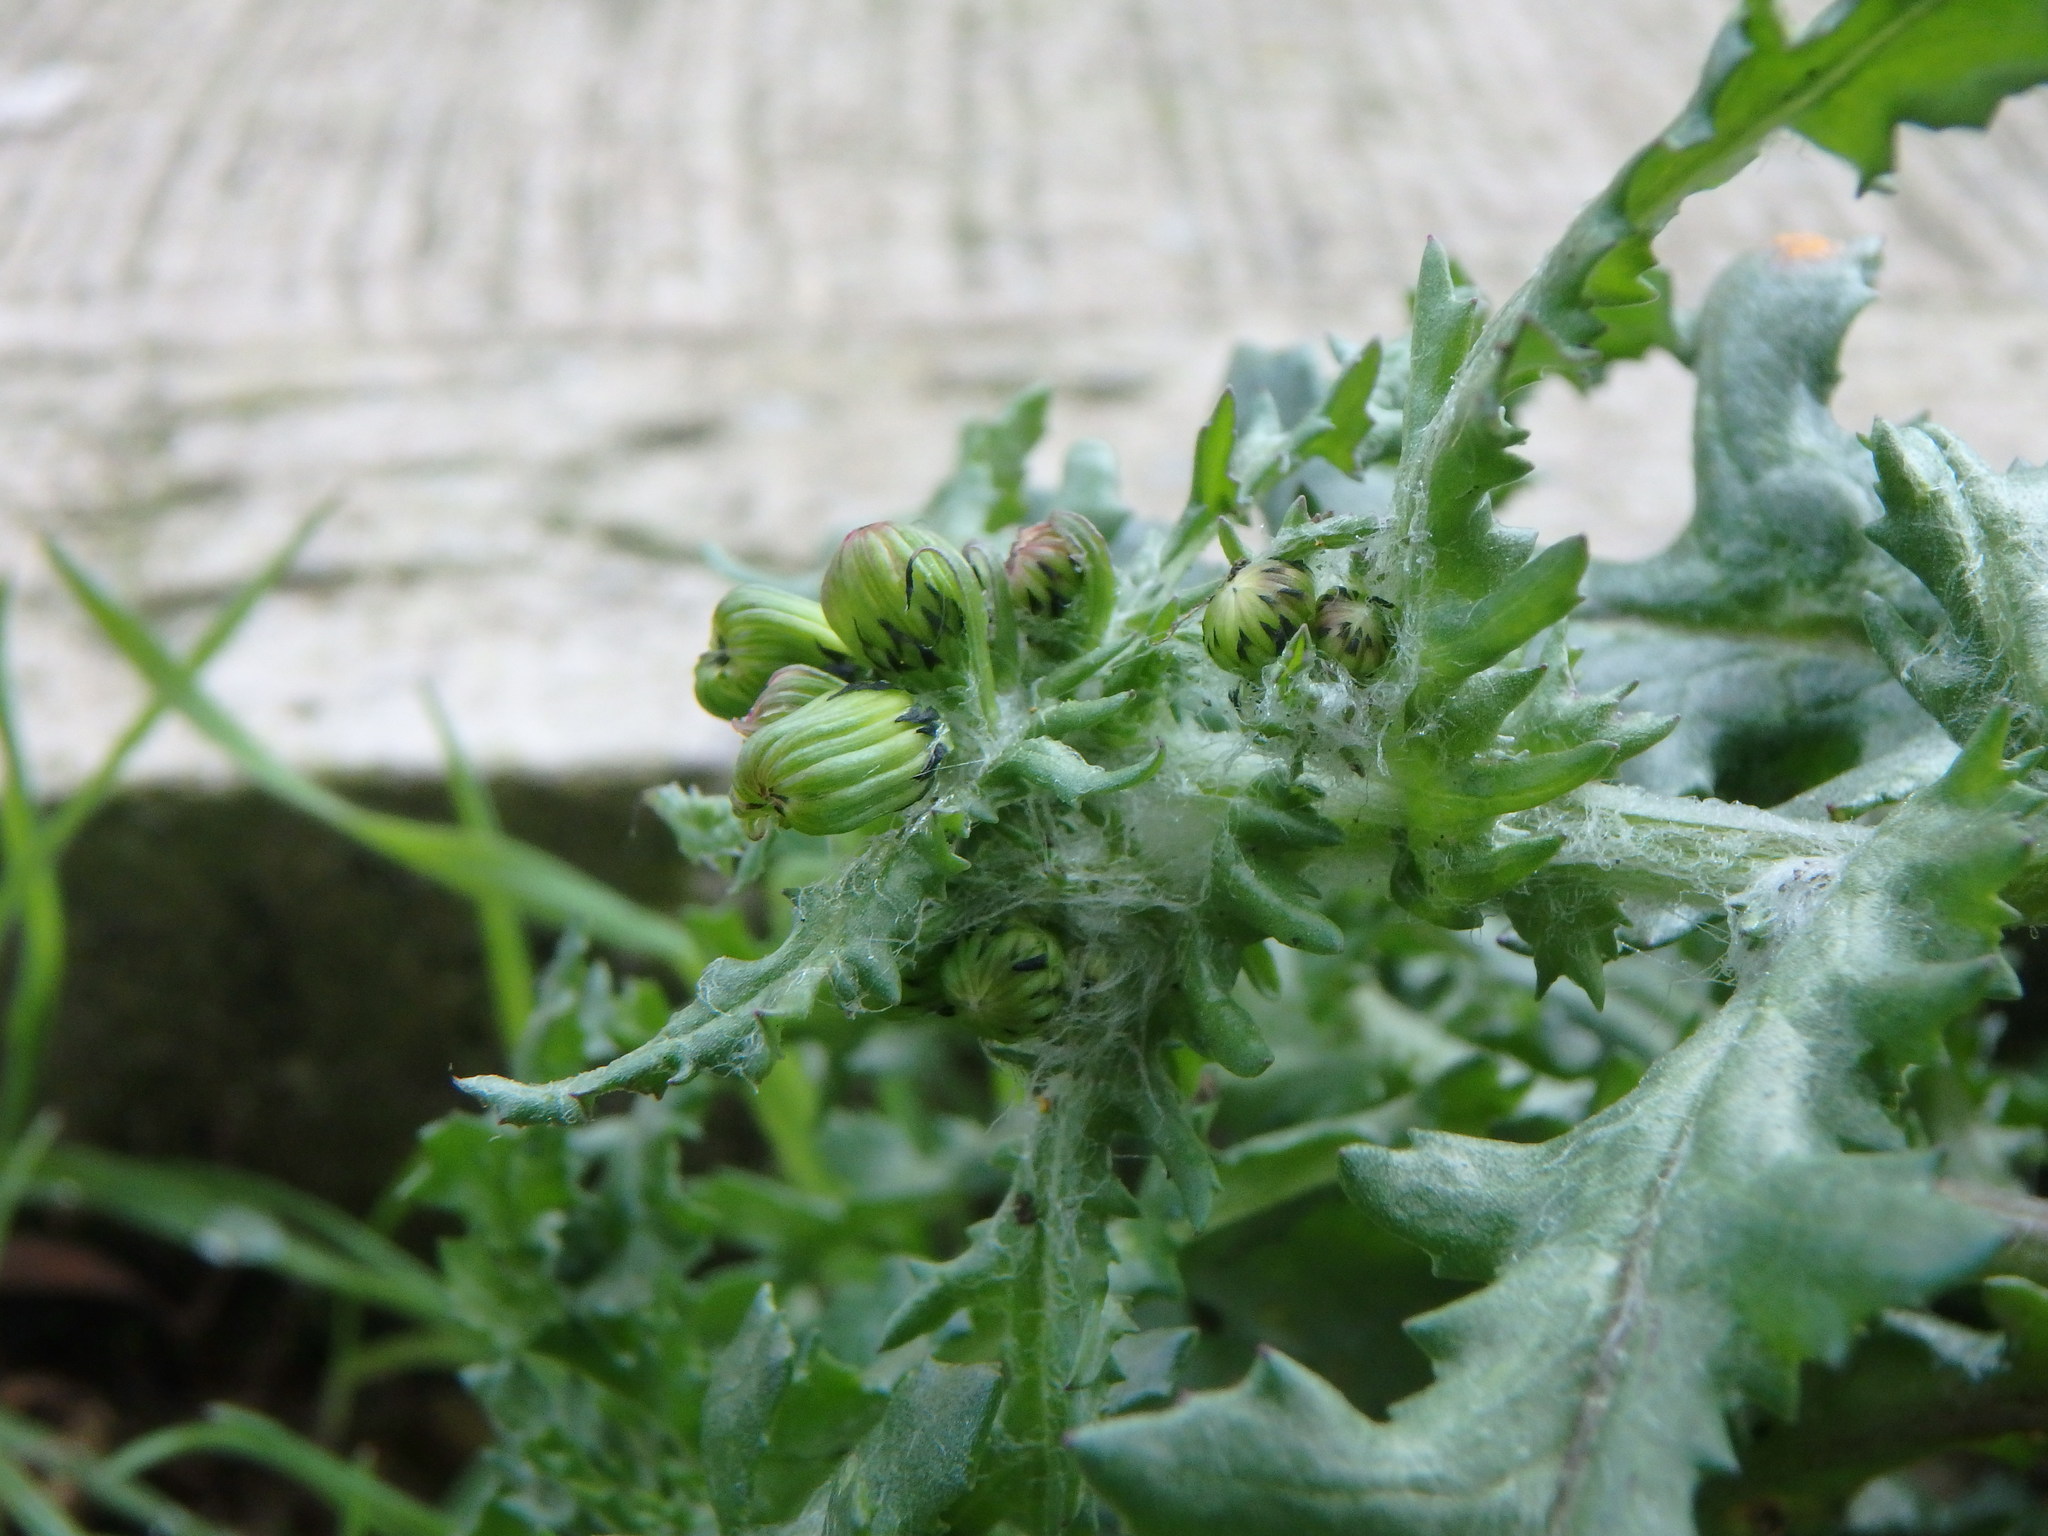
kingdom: Plantae
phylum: Tracheophyta
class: Magnoliopsida
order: Asterales
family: Asteraceae
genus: Senecio
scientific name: Senecio vulgaris
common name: Old-man-in-the-spring
